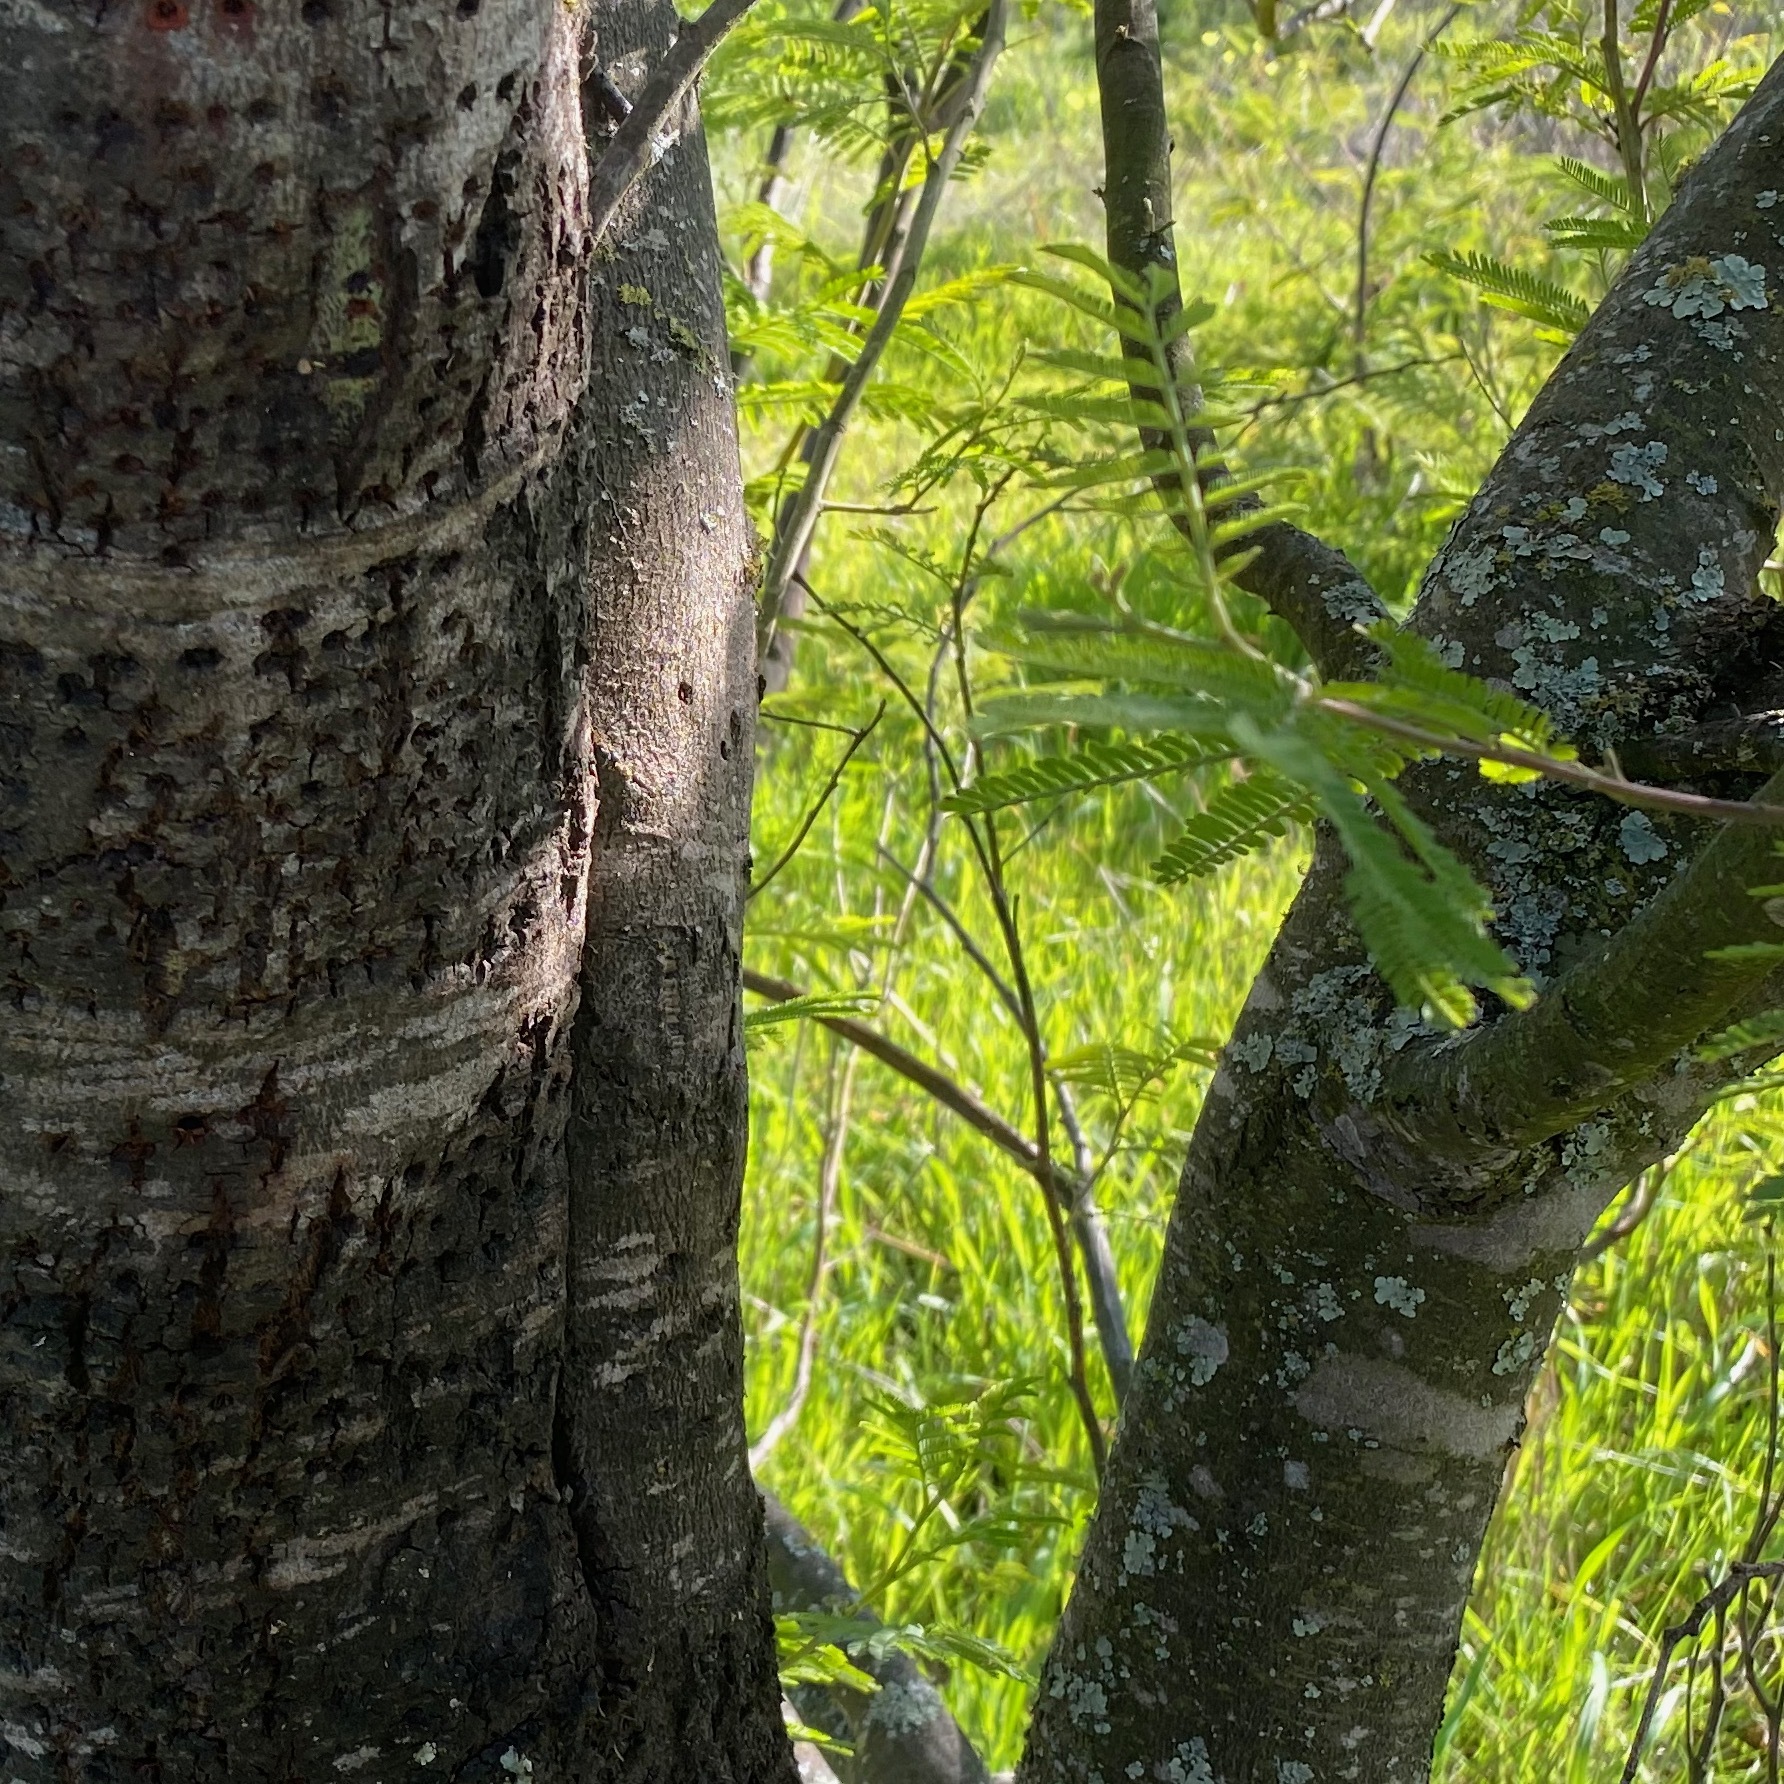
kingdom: Animalia
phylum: Chordata
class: Aves
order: Piciformes
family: Picidae
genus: Sphyrapicus
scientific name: Sphyrapicus
